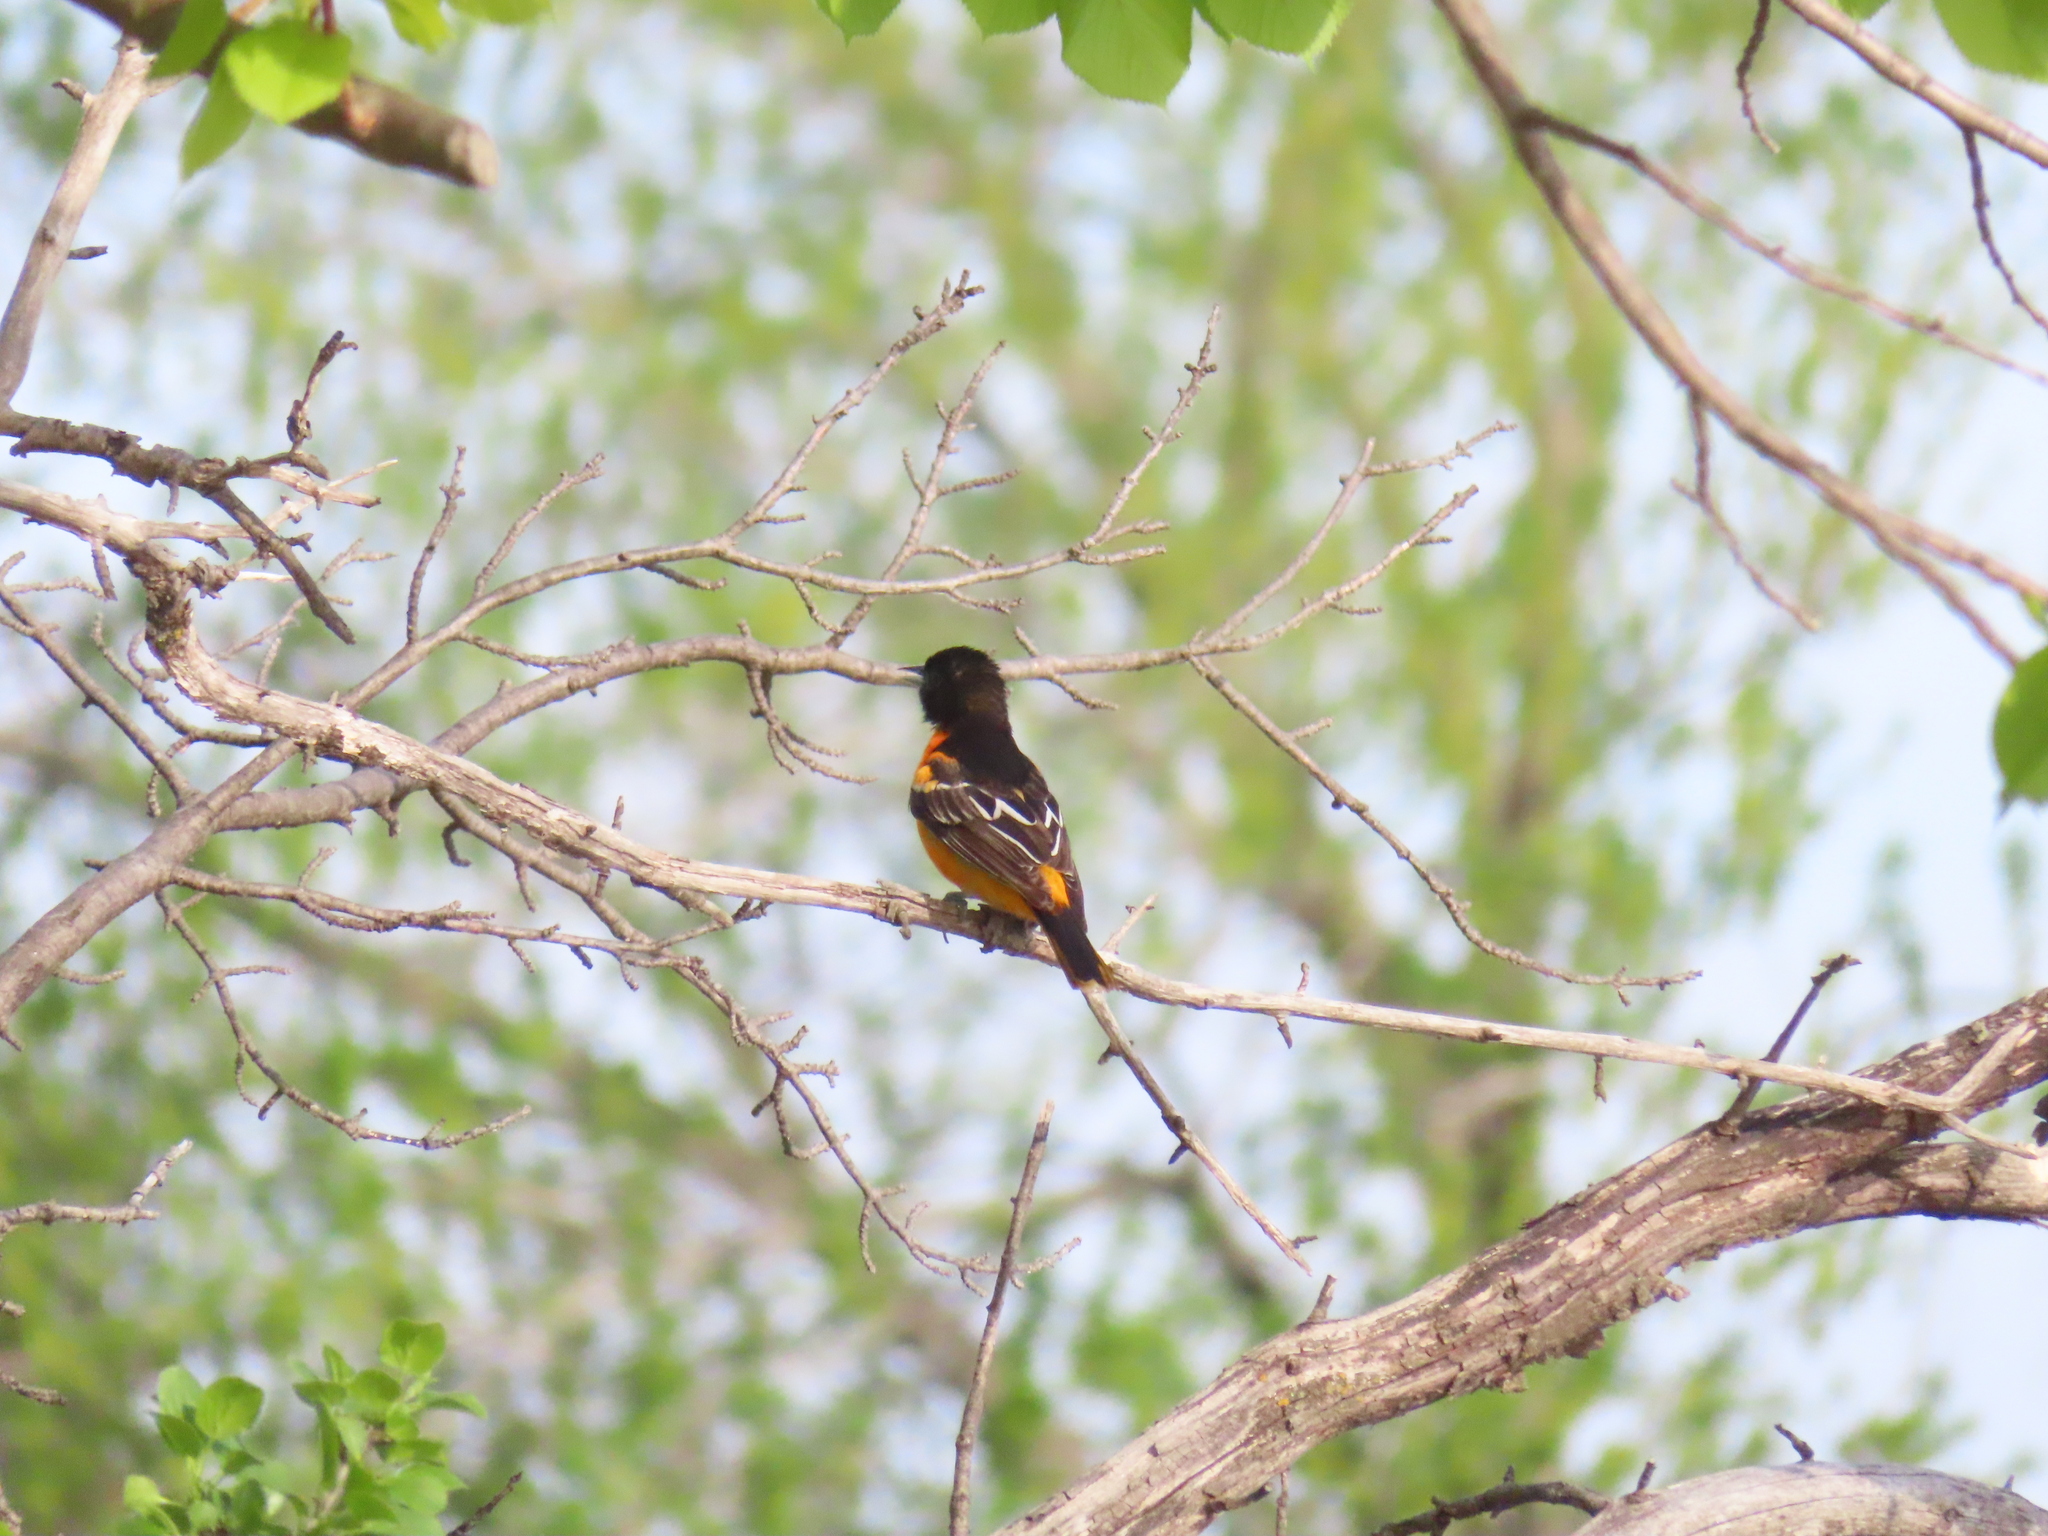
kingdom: Animalia
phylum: Chordata
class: Aves
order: Passeriformes
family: Icteridae
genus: Icterus
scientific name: Icterus galbula
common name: Baltimore oriole
